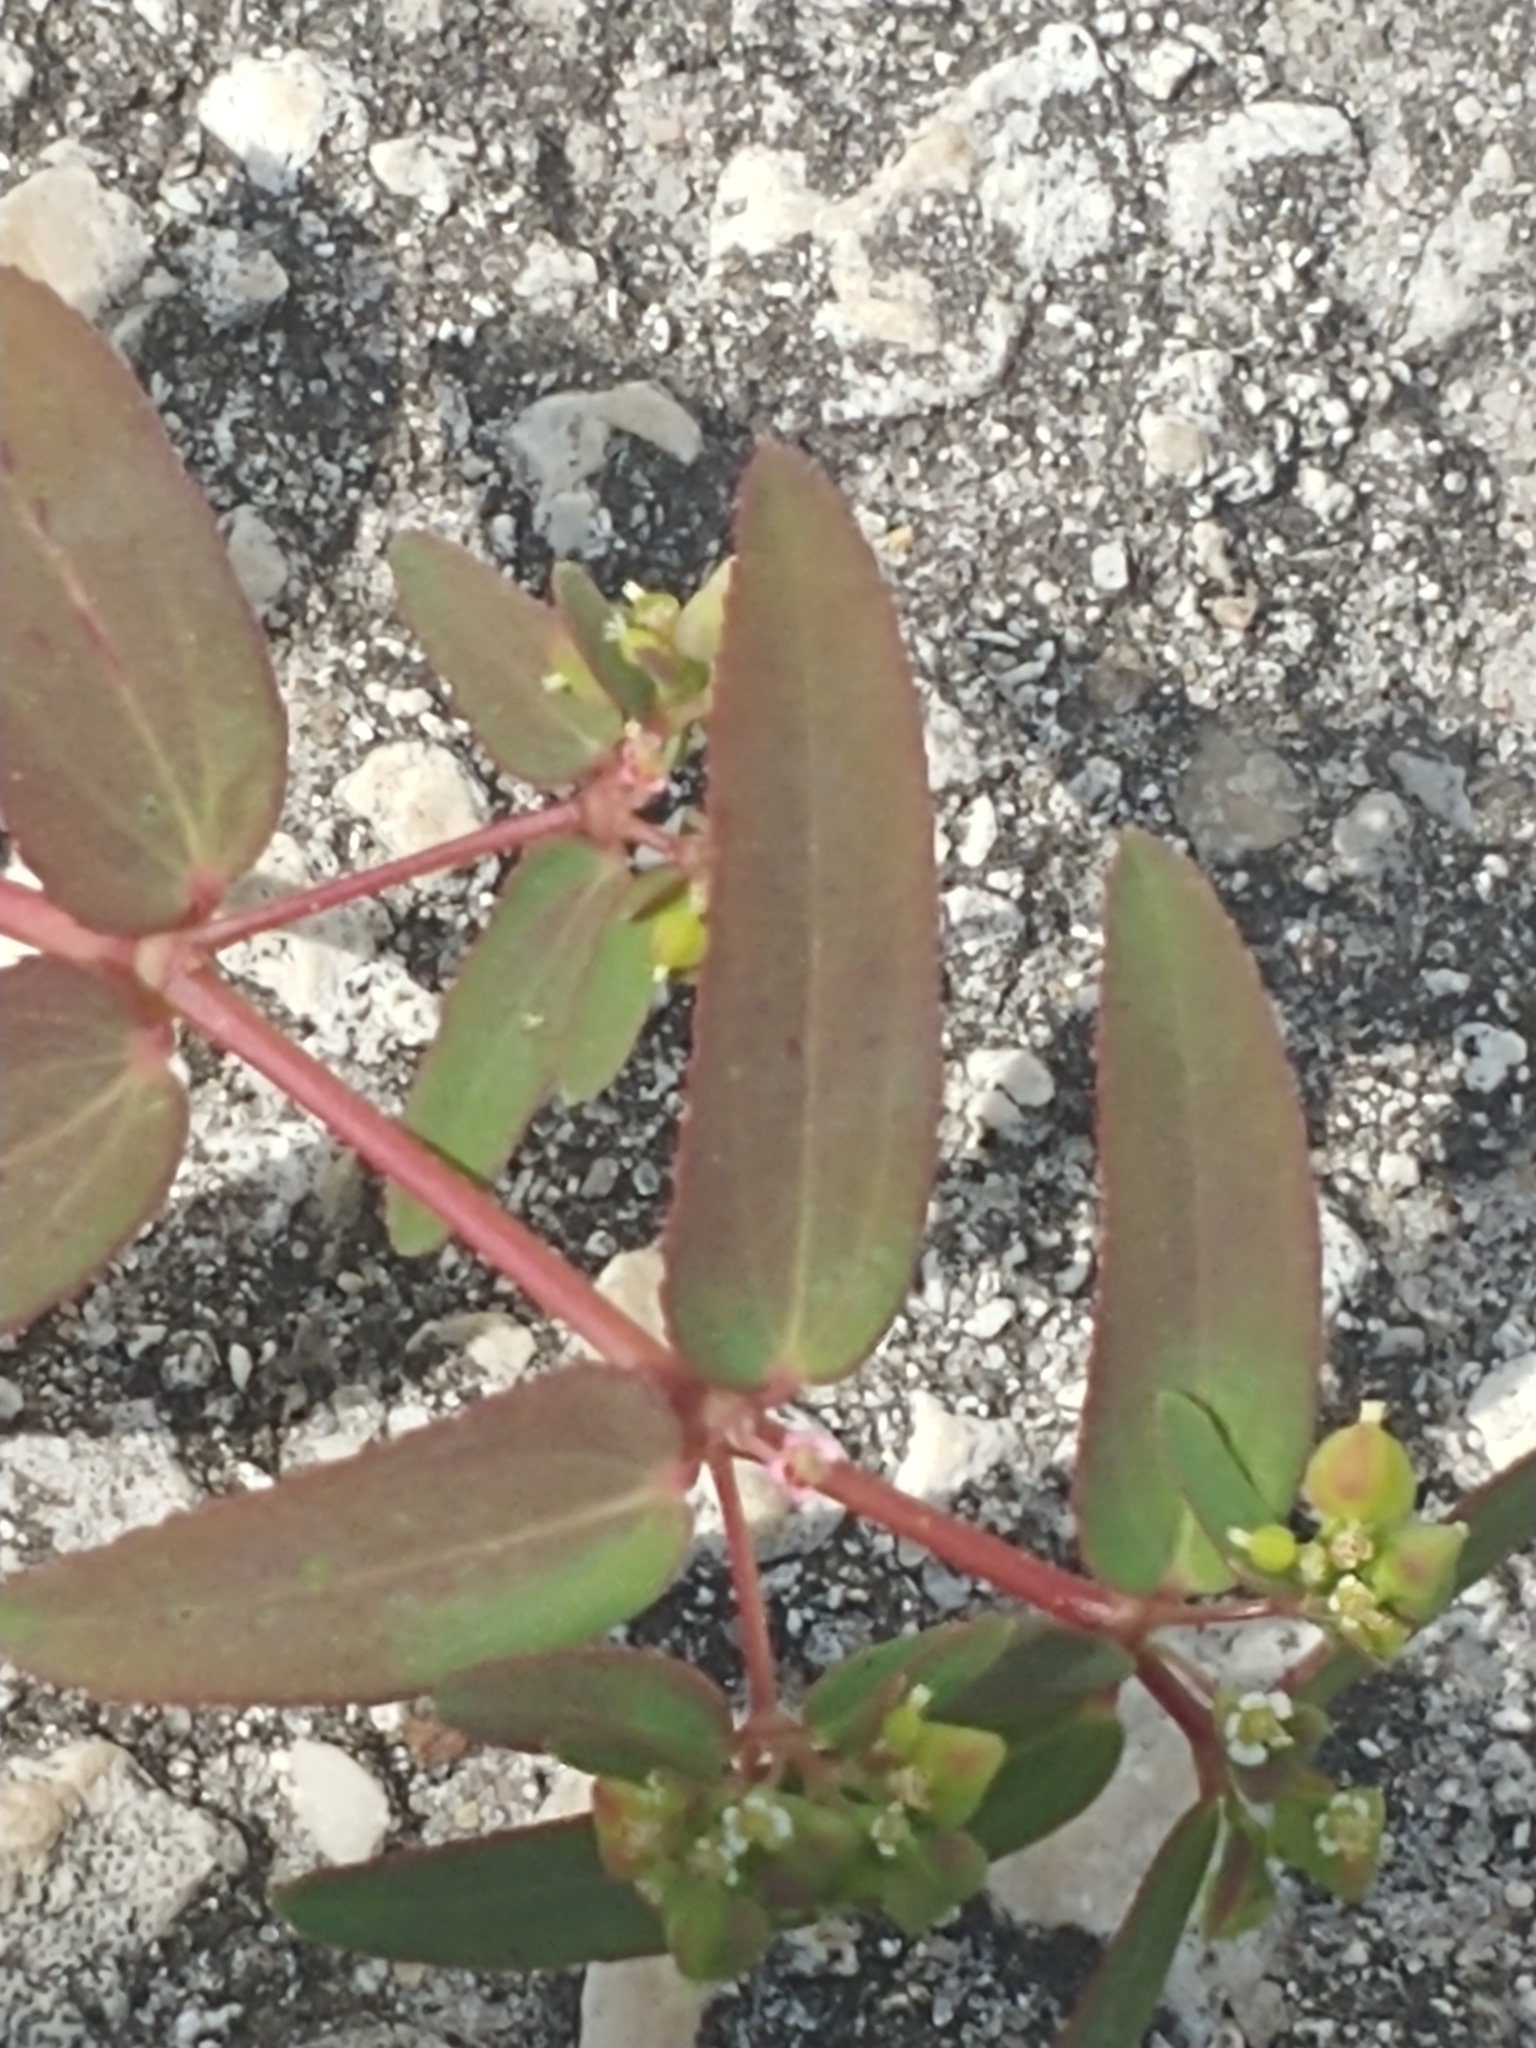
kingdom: Plantae
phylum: Tracheophyta
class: Magnoliopsida
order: Malpighiales
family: Euphorbiaceae
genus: Euphorbia
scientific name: Euphorbia hyssopifolia
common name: Hyssopleaf sandmat
